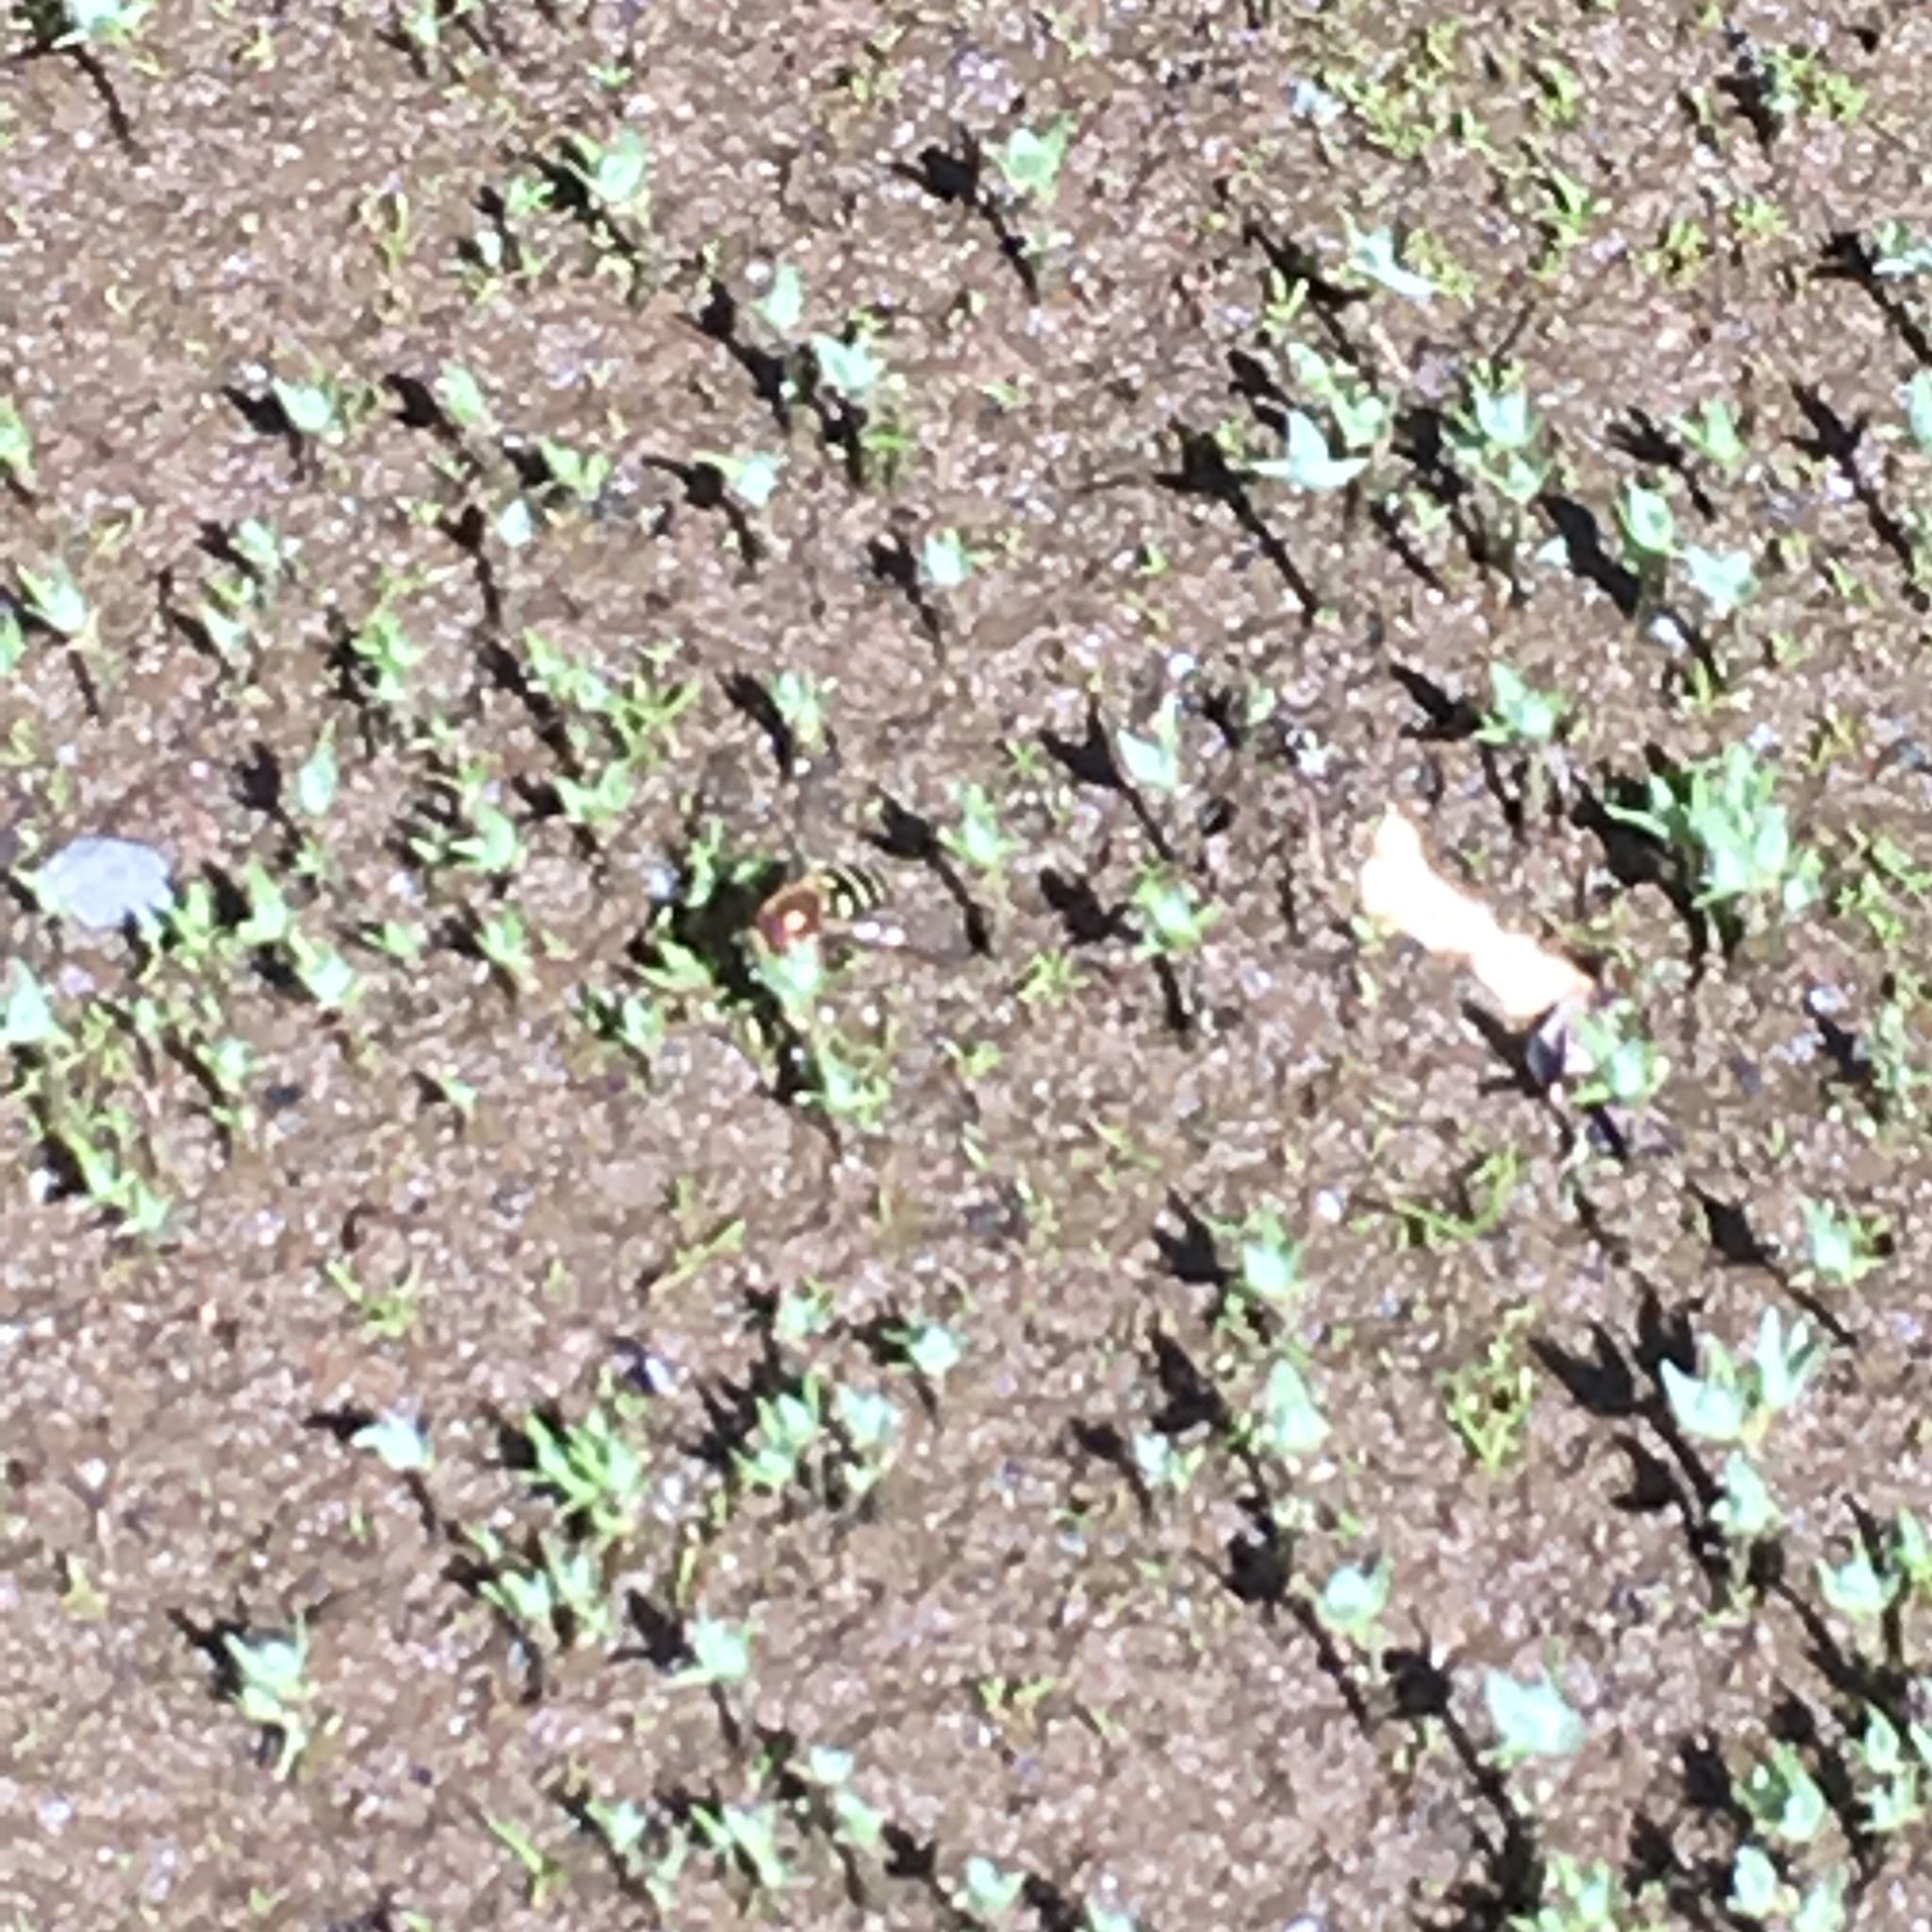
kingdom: Animalia
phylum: Arthropoda
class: Insecta
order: Diptera
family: Syrphidae
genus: Syrphus
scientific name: Syrphus
